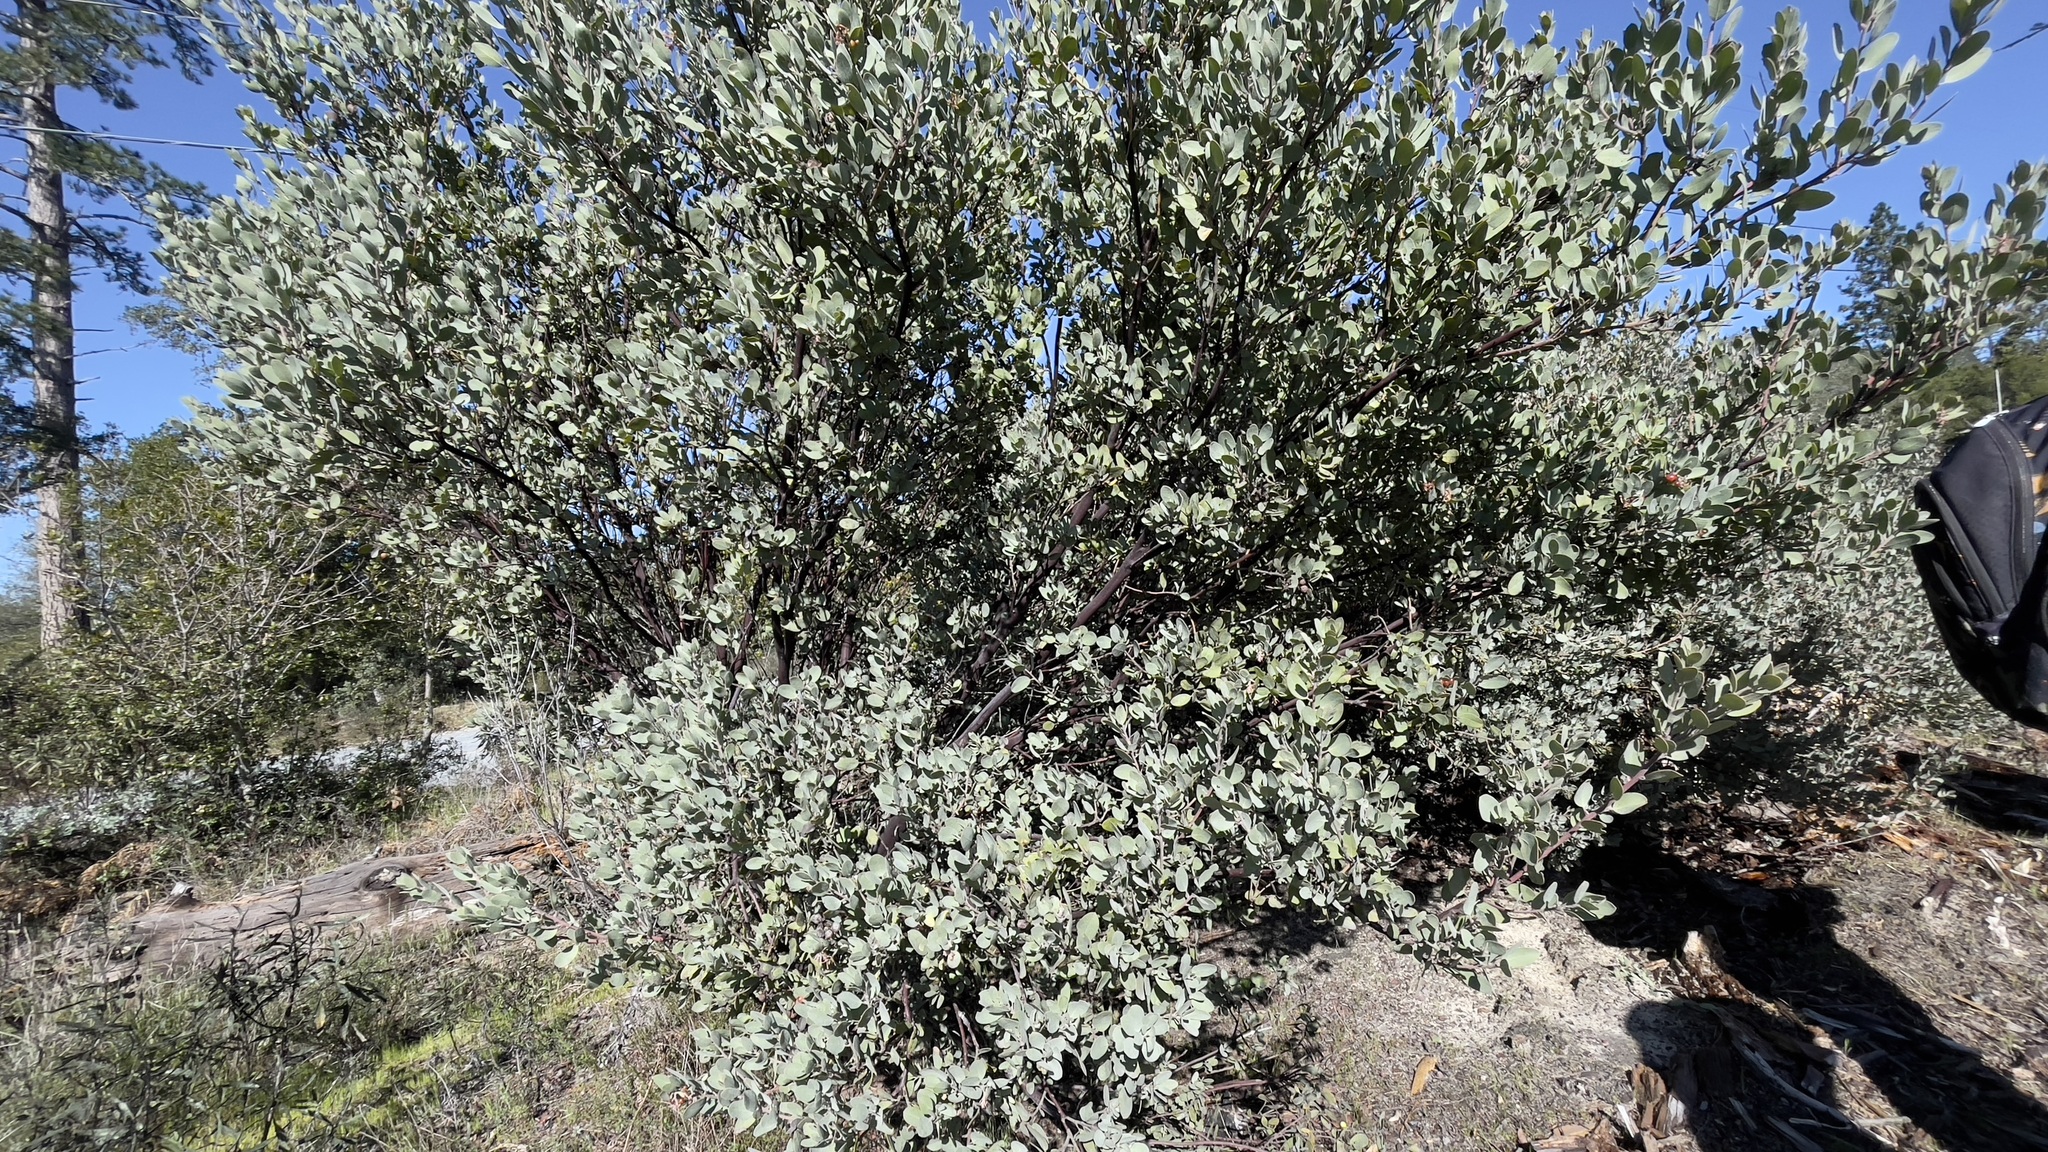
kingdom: Plantae
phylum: Tracheophyta
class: Magnoliopsida
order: Ericales
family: Ericaceae
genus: Arctostaphylos
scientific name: Arctostaphylos silvicola
